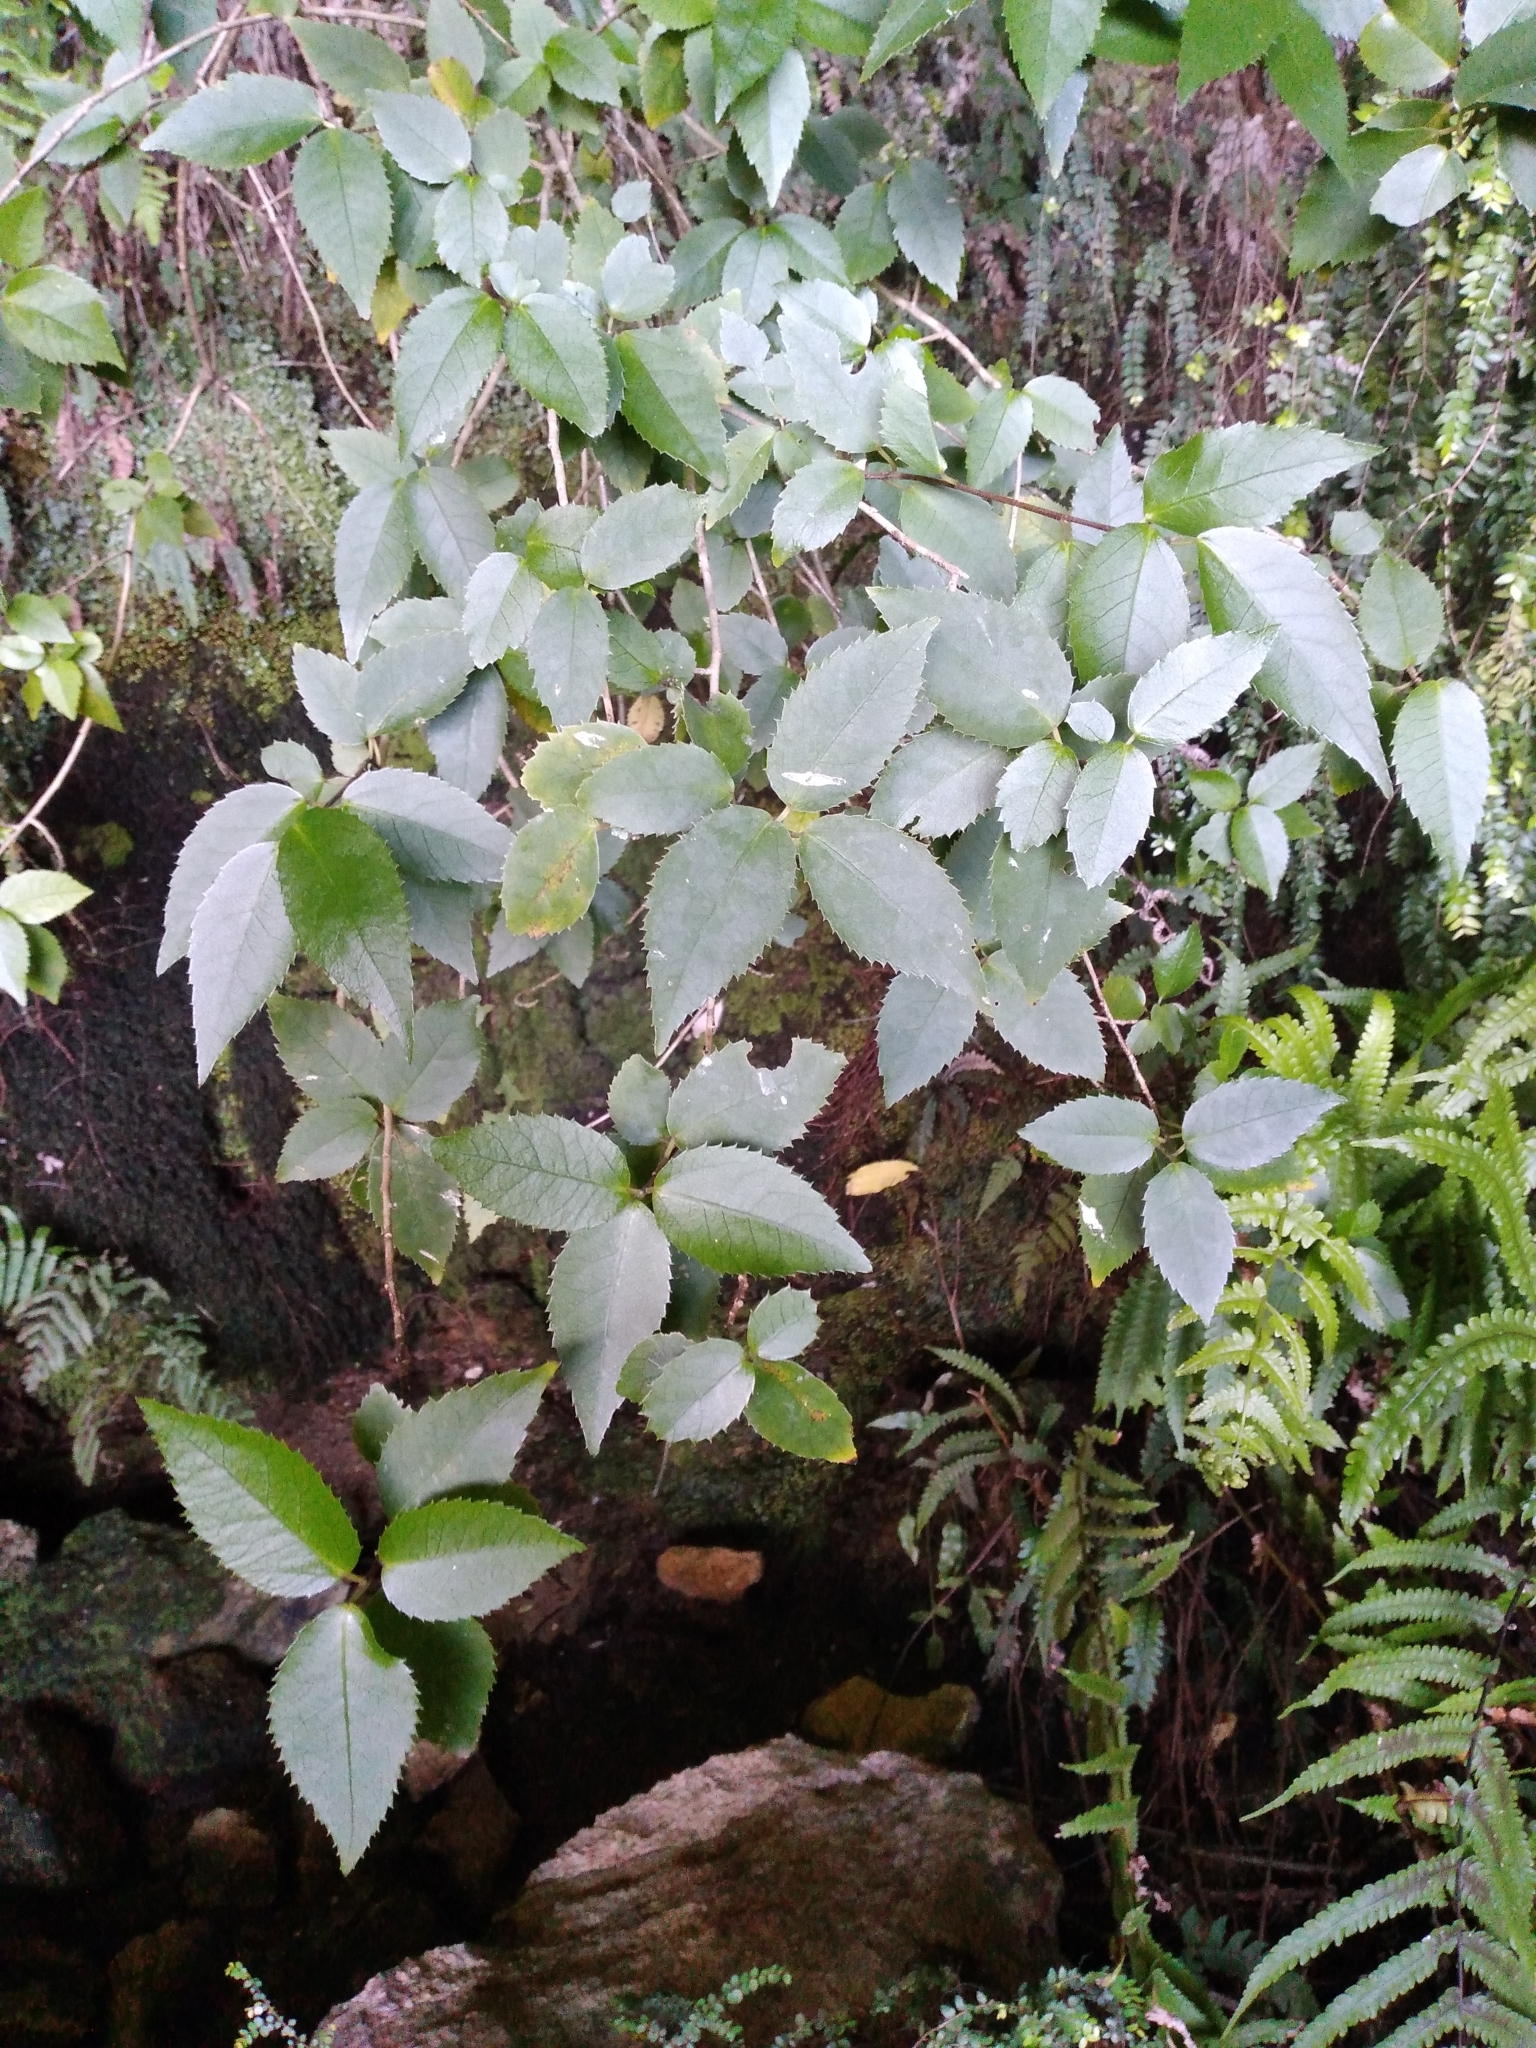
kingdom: Plantae
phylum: Tracheophyta
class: Magnoliopsida
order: Malvales
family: Malvaceae
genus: Hoheria
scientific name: Hoheria ovata
